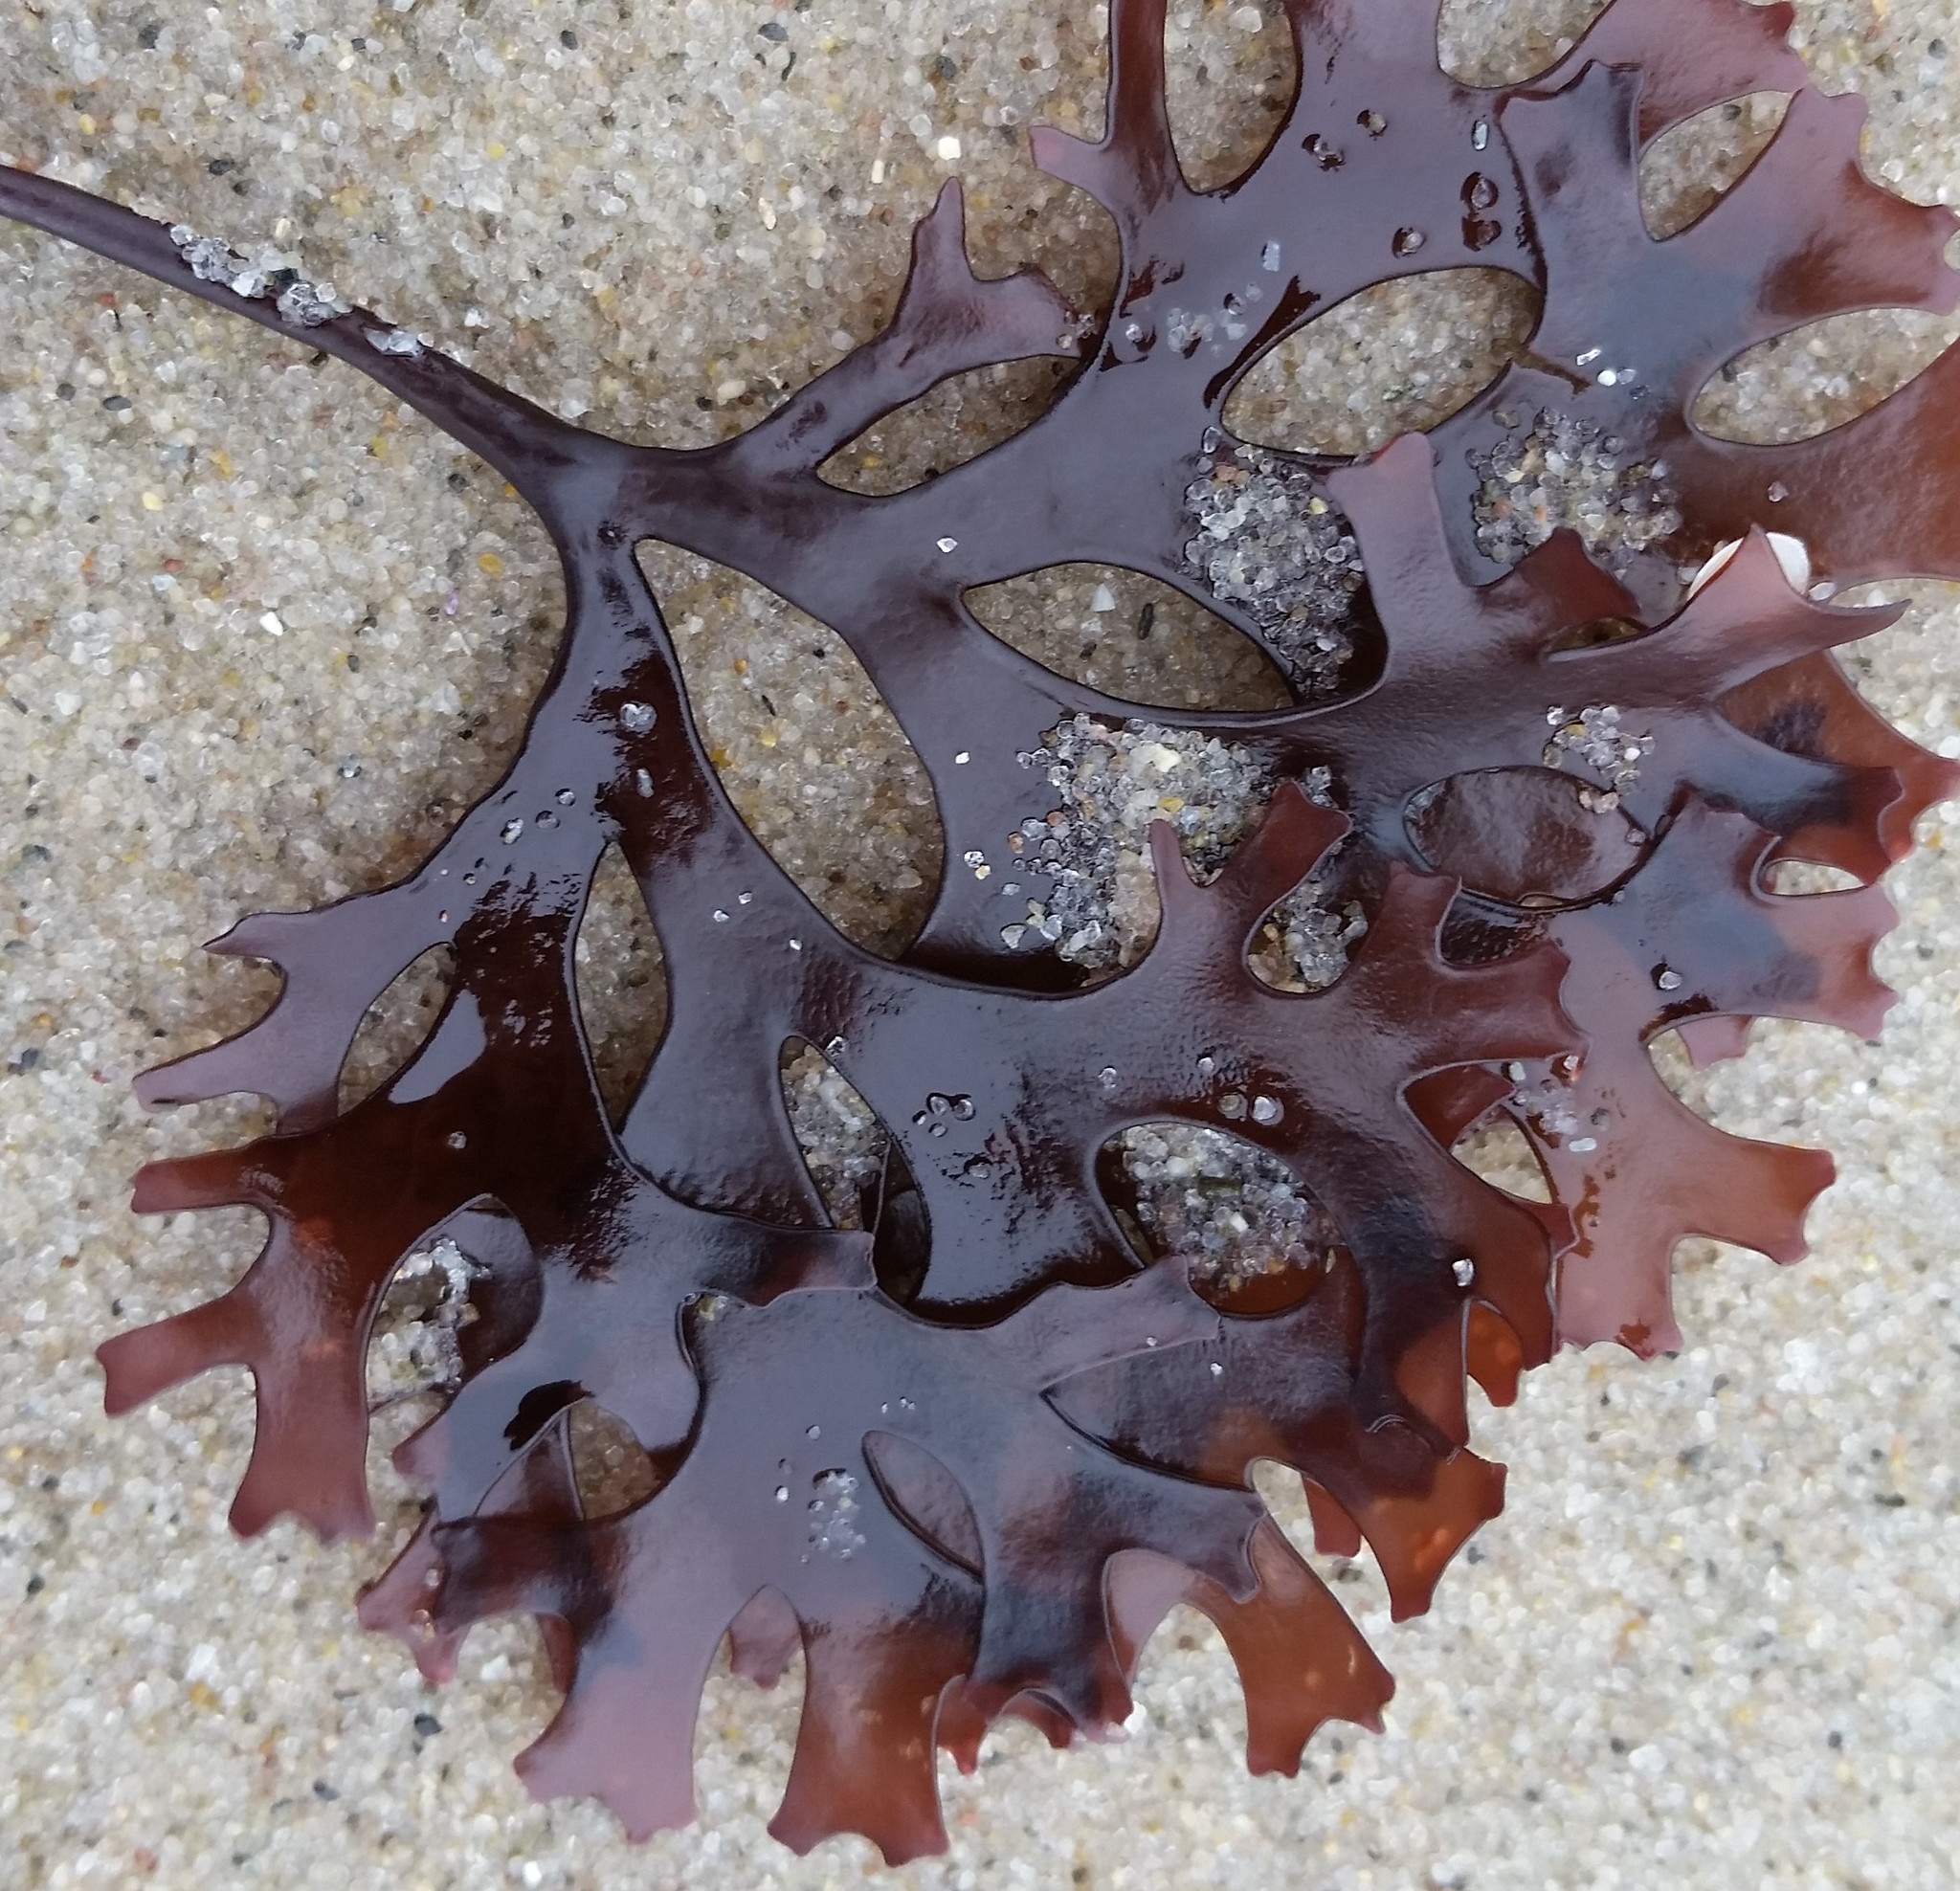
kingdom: Plantae
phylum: Rhodophyta
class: Florideophyceae
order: Gigartinales
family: Gigartinaceae
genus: Chondrus
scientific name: Chondrus crispus
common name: Carrageen
